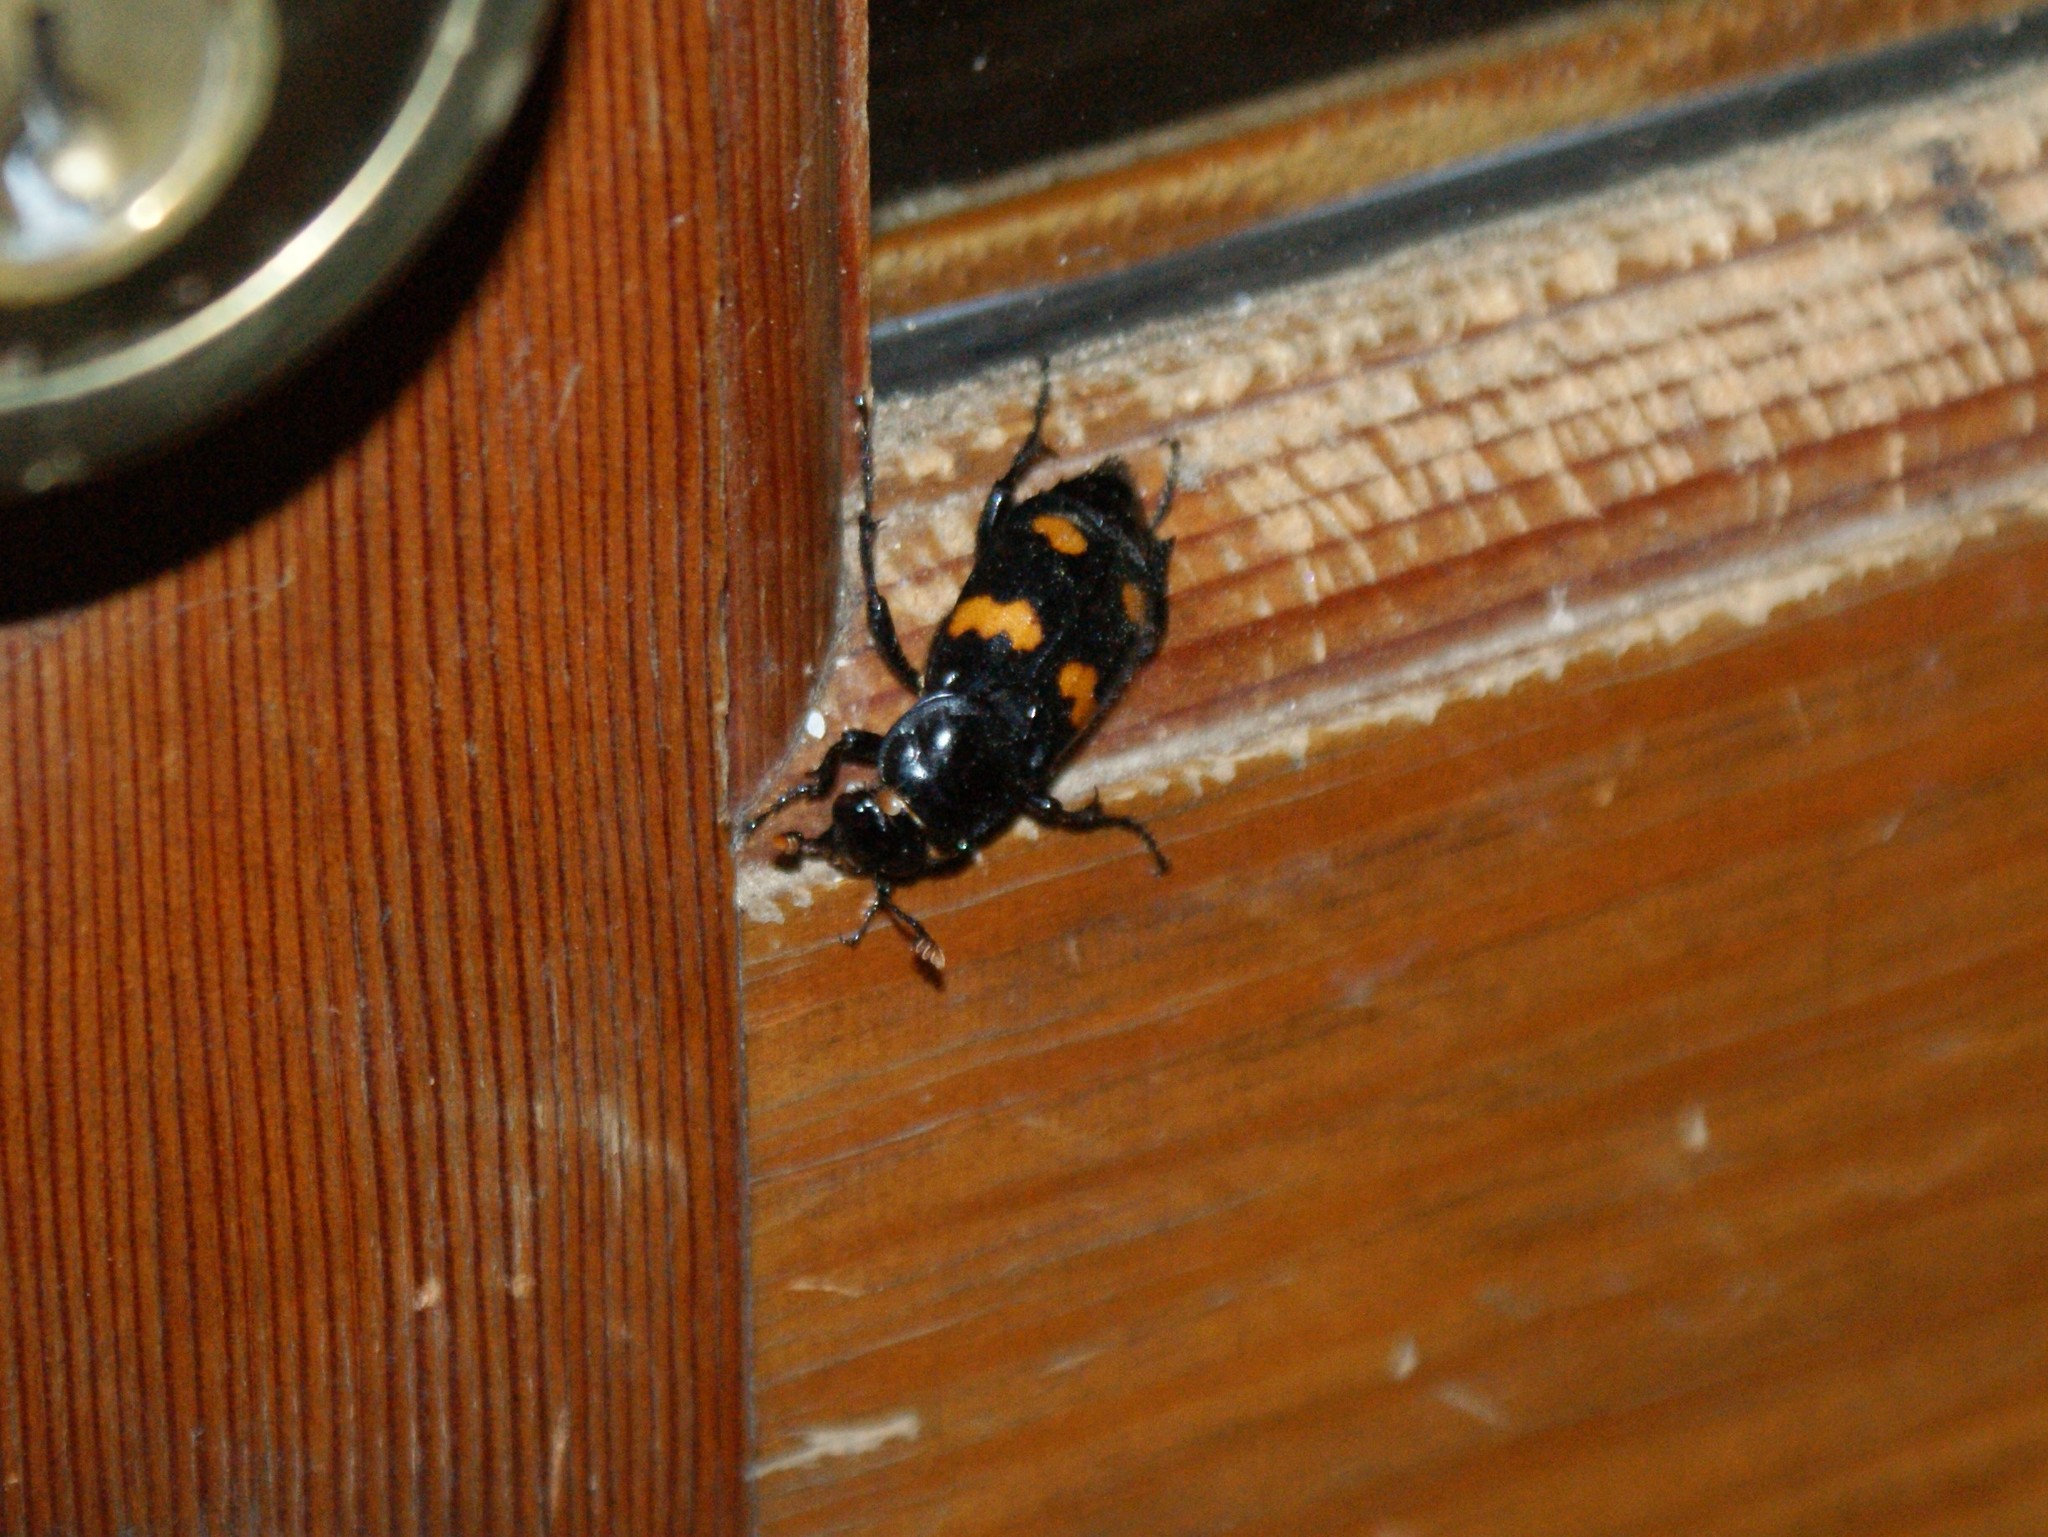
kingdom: Animalia
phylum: Arthropoda
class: Insecta
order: Coleoptera
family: Staphylinidae
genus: Nicrophorus
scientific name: Nicrophorus orbicollis
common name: Roundneck sexton beetle
